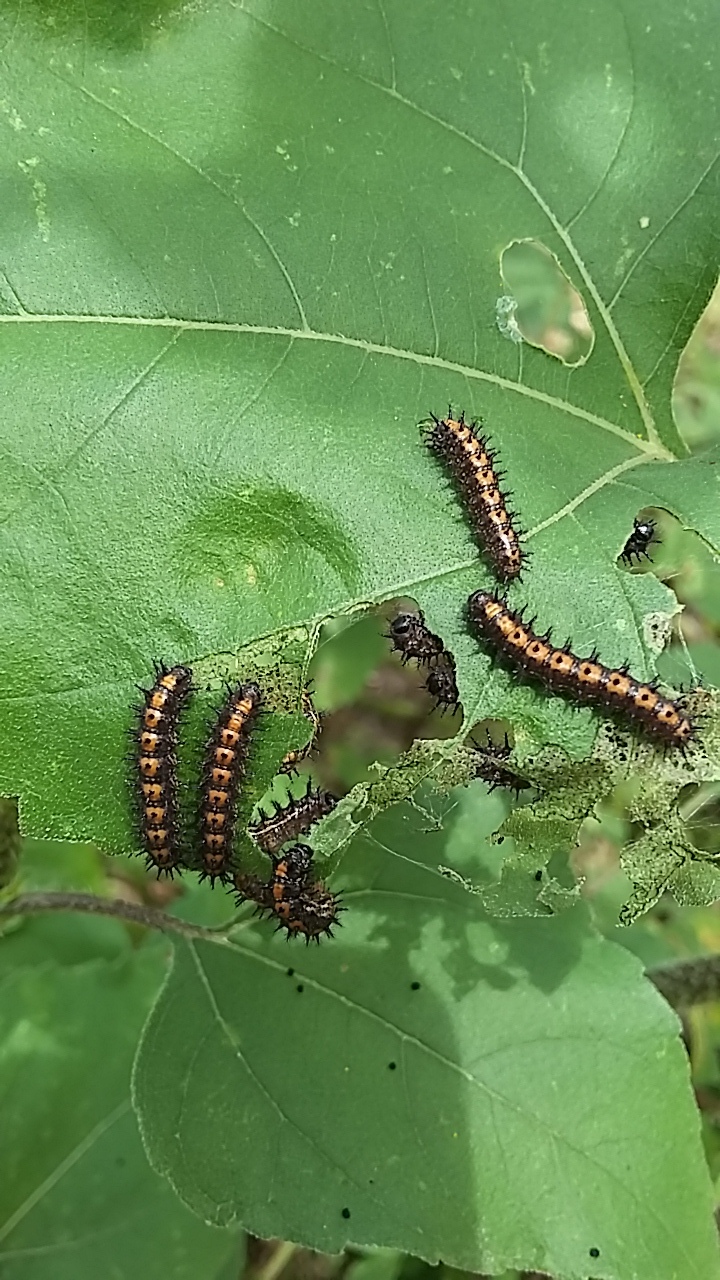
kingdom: Animalia
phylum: Arthropoda
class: Insecta
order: Lepidoptera
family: Nymphalidae
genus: Chlosyne
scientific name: Chlosyne lacinia
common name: Bordered patch
